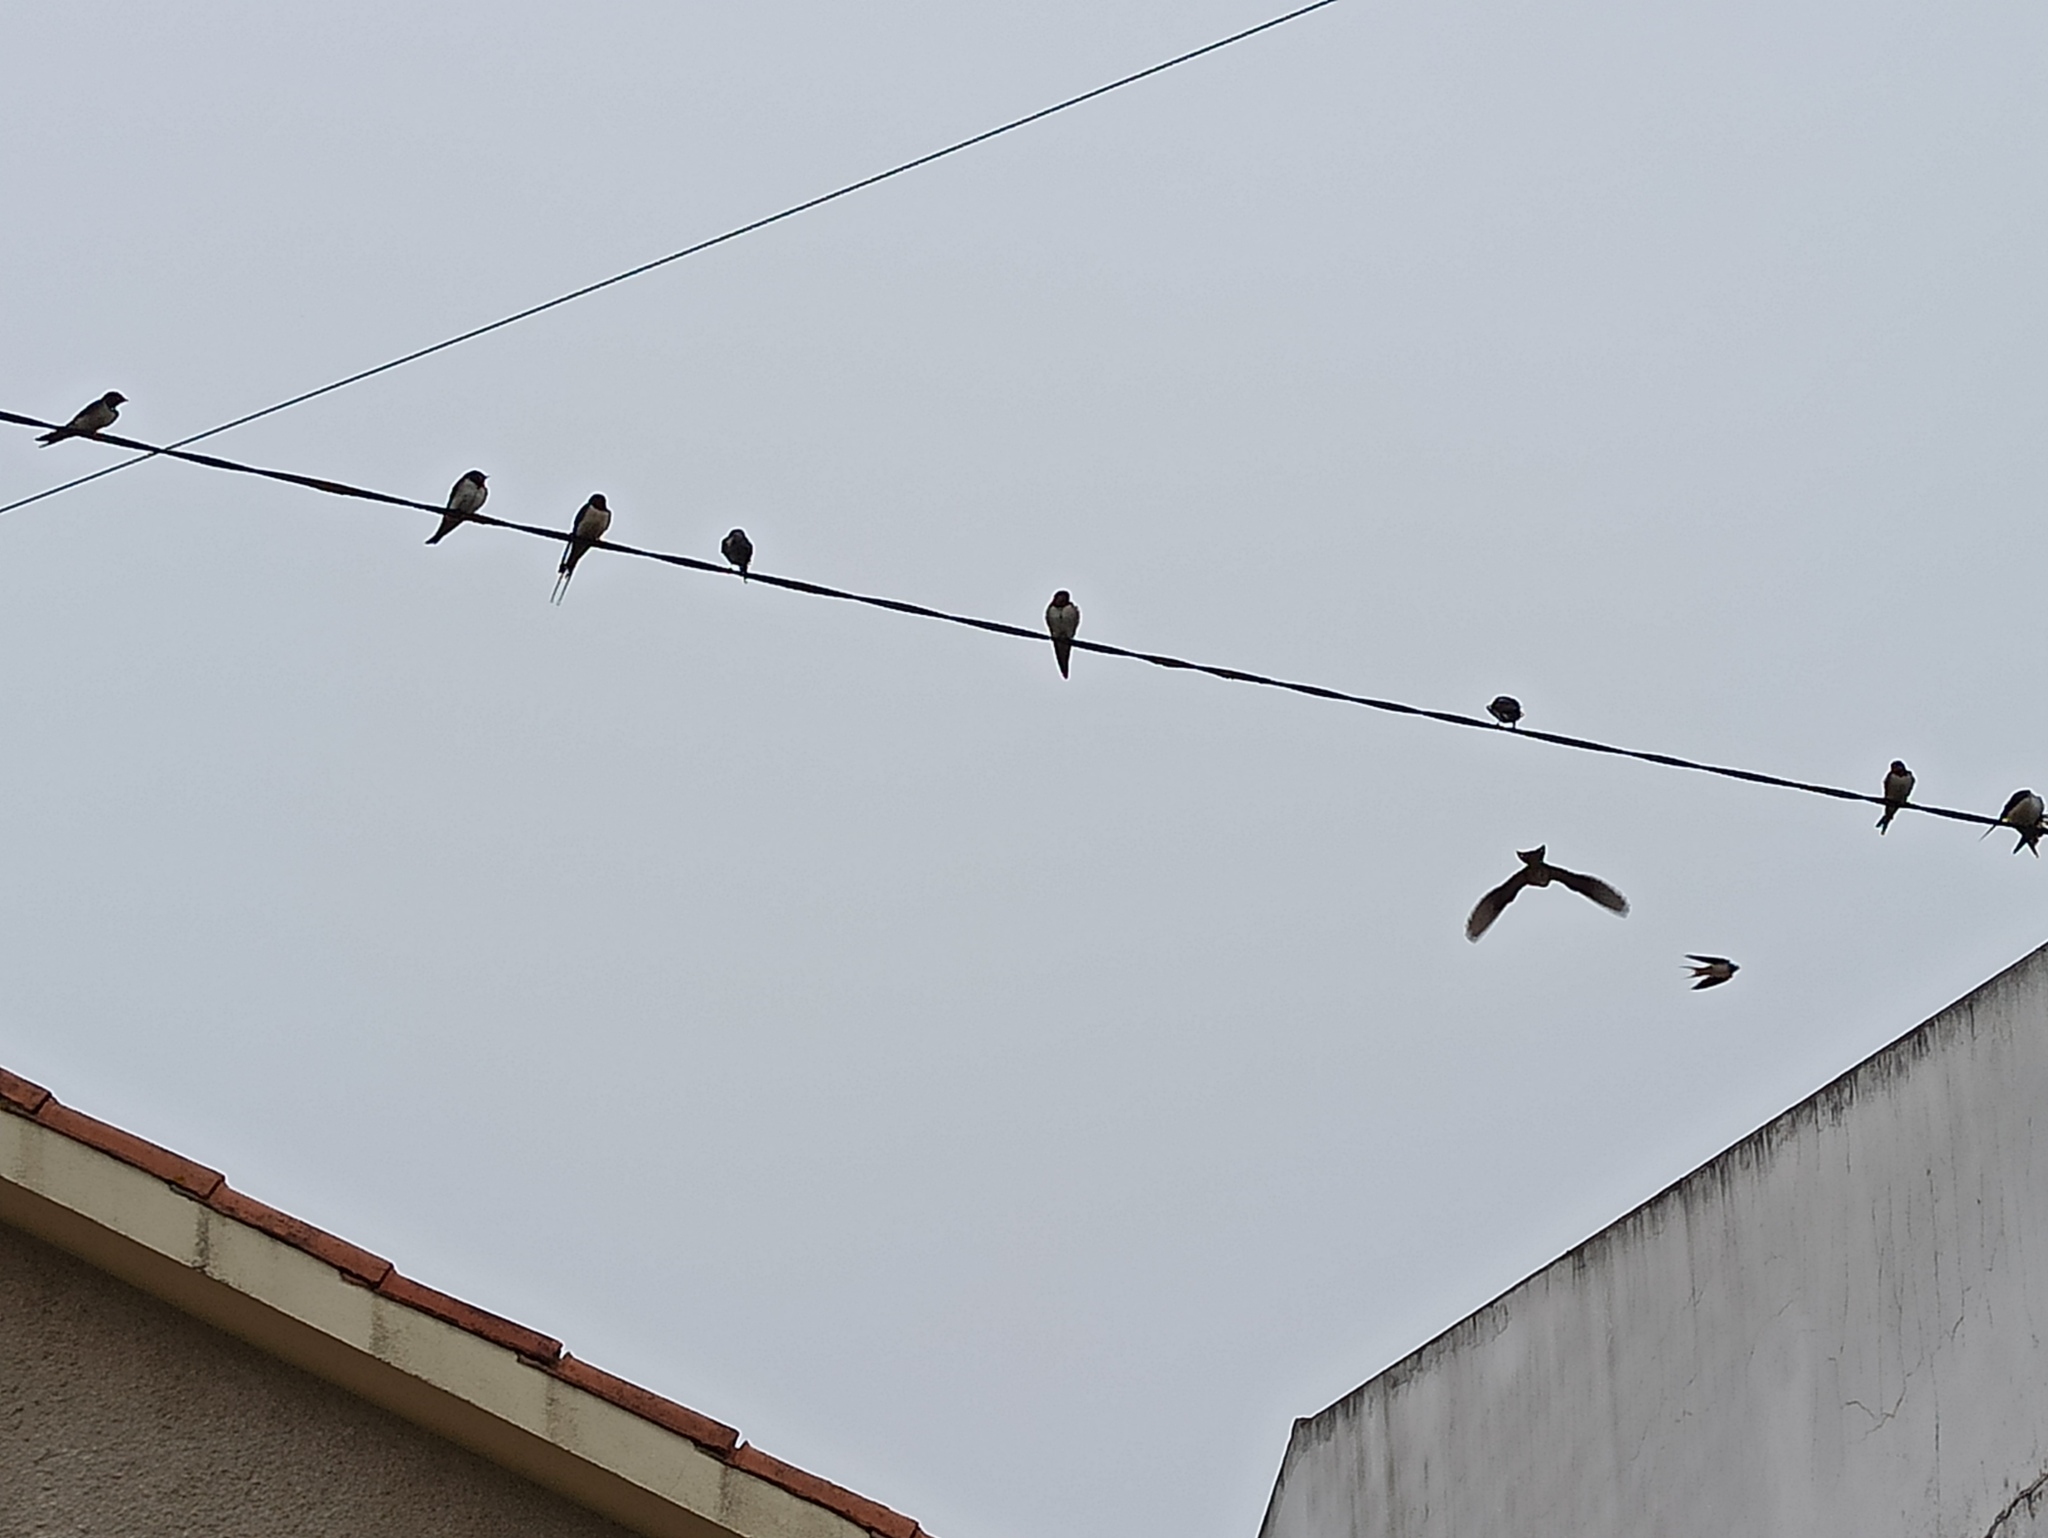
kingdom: Animalia
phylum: Chordata
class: Aves
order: Passeriformes
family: Hirundinidae
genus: Hirundo
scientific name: Hirundo rustica
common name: Barn swallow
